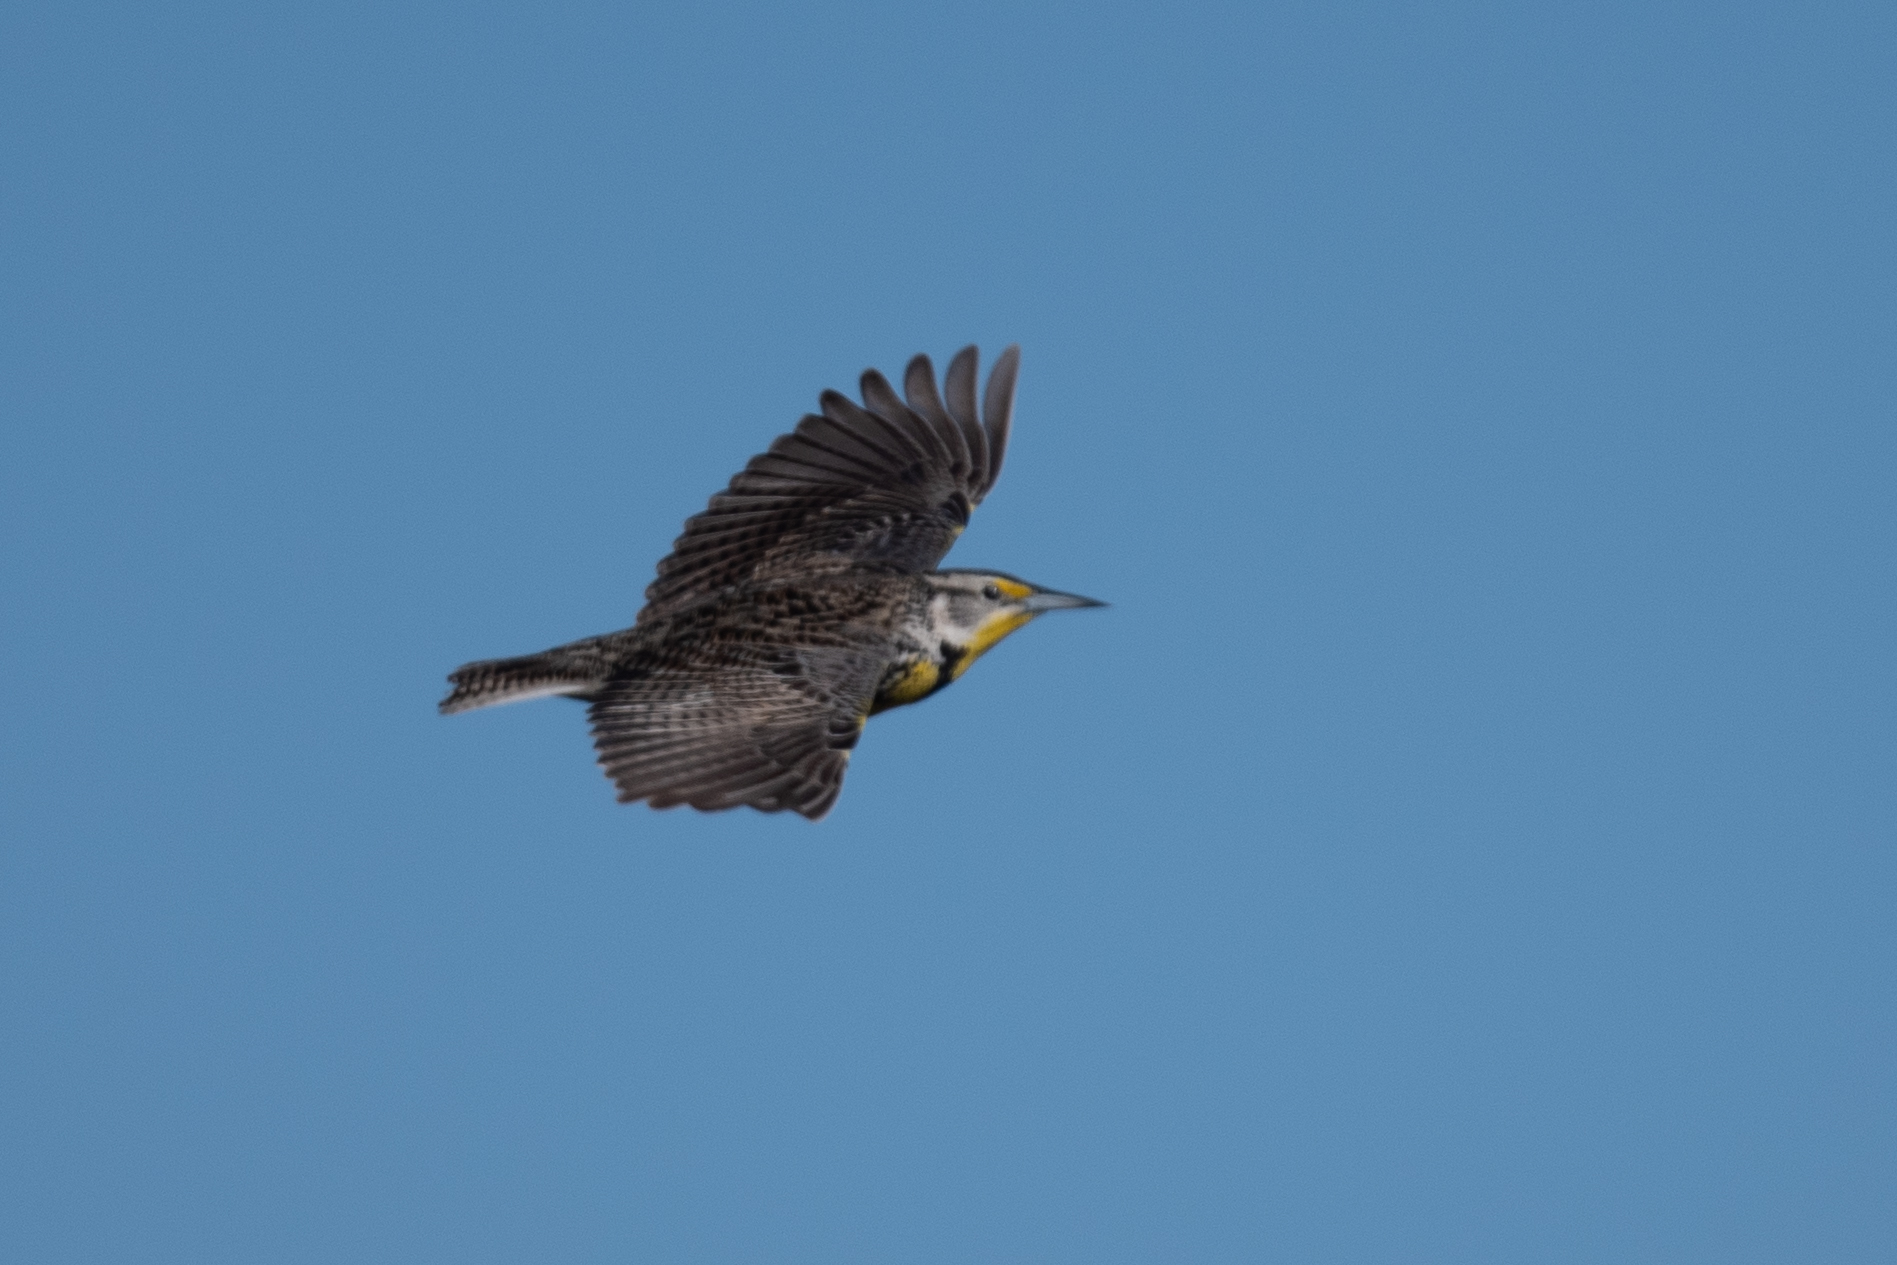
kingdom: Animalia
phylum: Chordata
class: Aves
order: Passeriformes
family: Icteridae
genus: Sturnella
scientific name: Sturnella neglecta
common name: Western meadowlark
